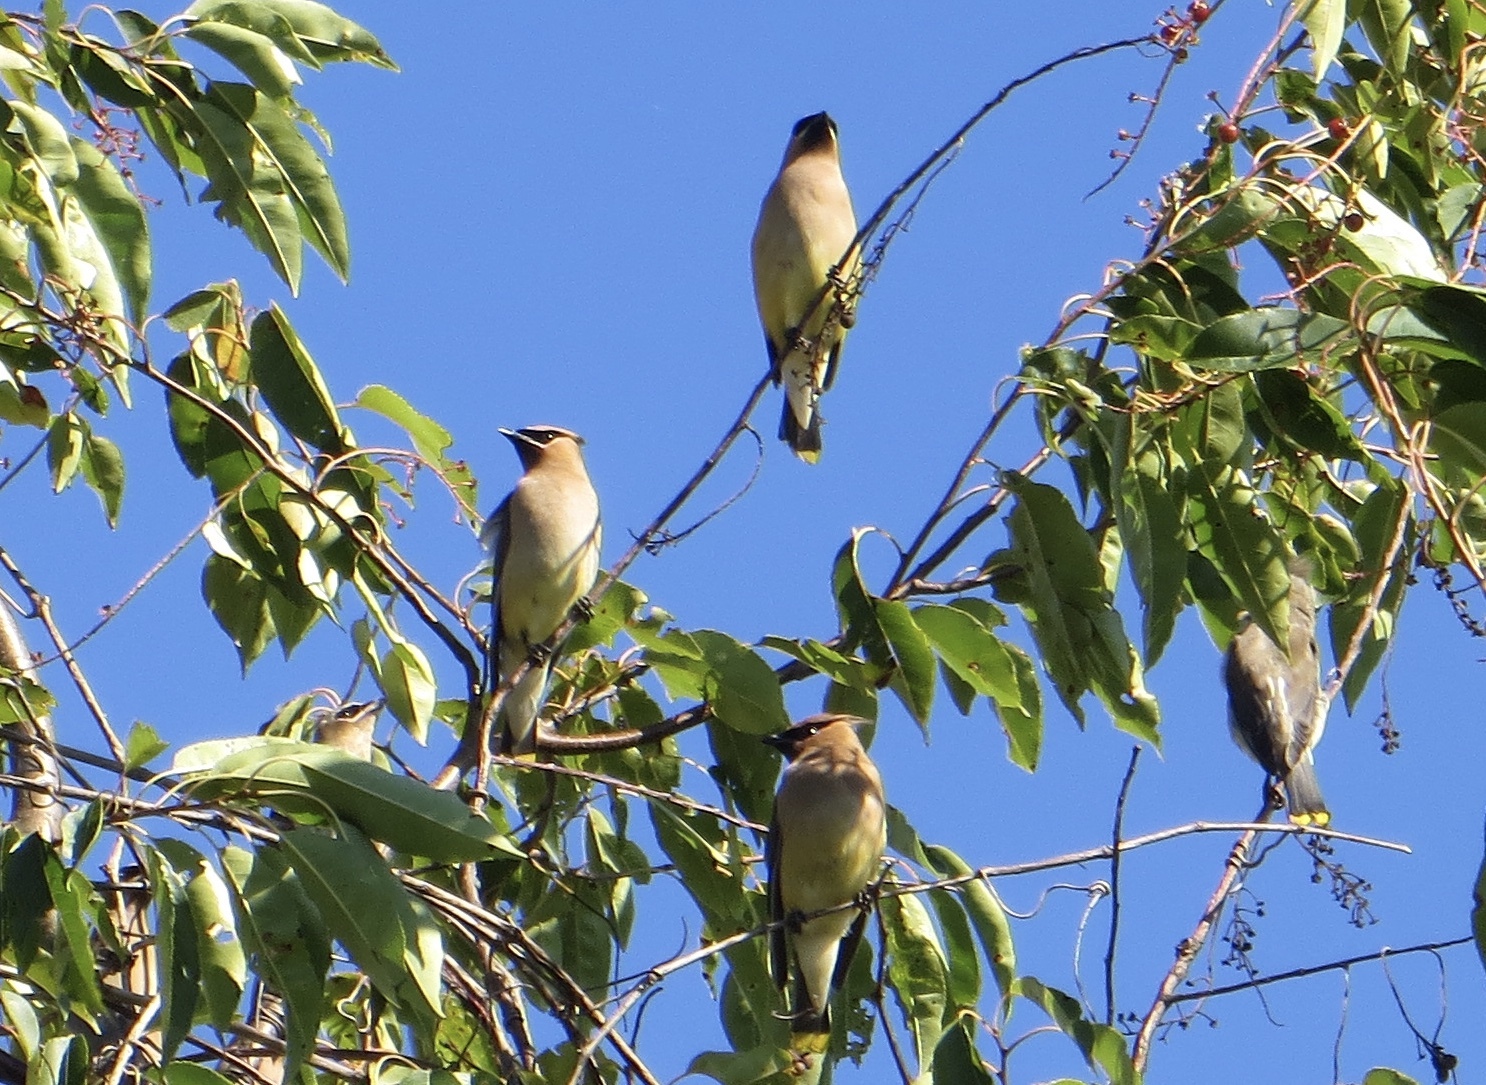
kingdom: Animalia
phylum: Chordata
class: Aves
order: Passeriformes
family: Bombycillidae
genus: Bombycilla
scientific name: Bombycilla cedrorum
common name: Cedar waxwing
